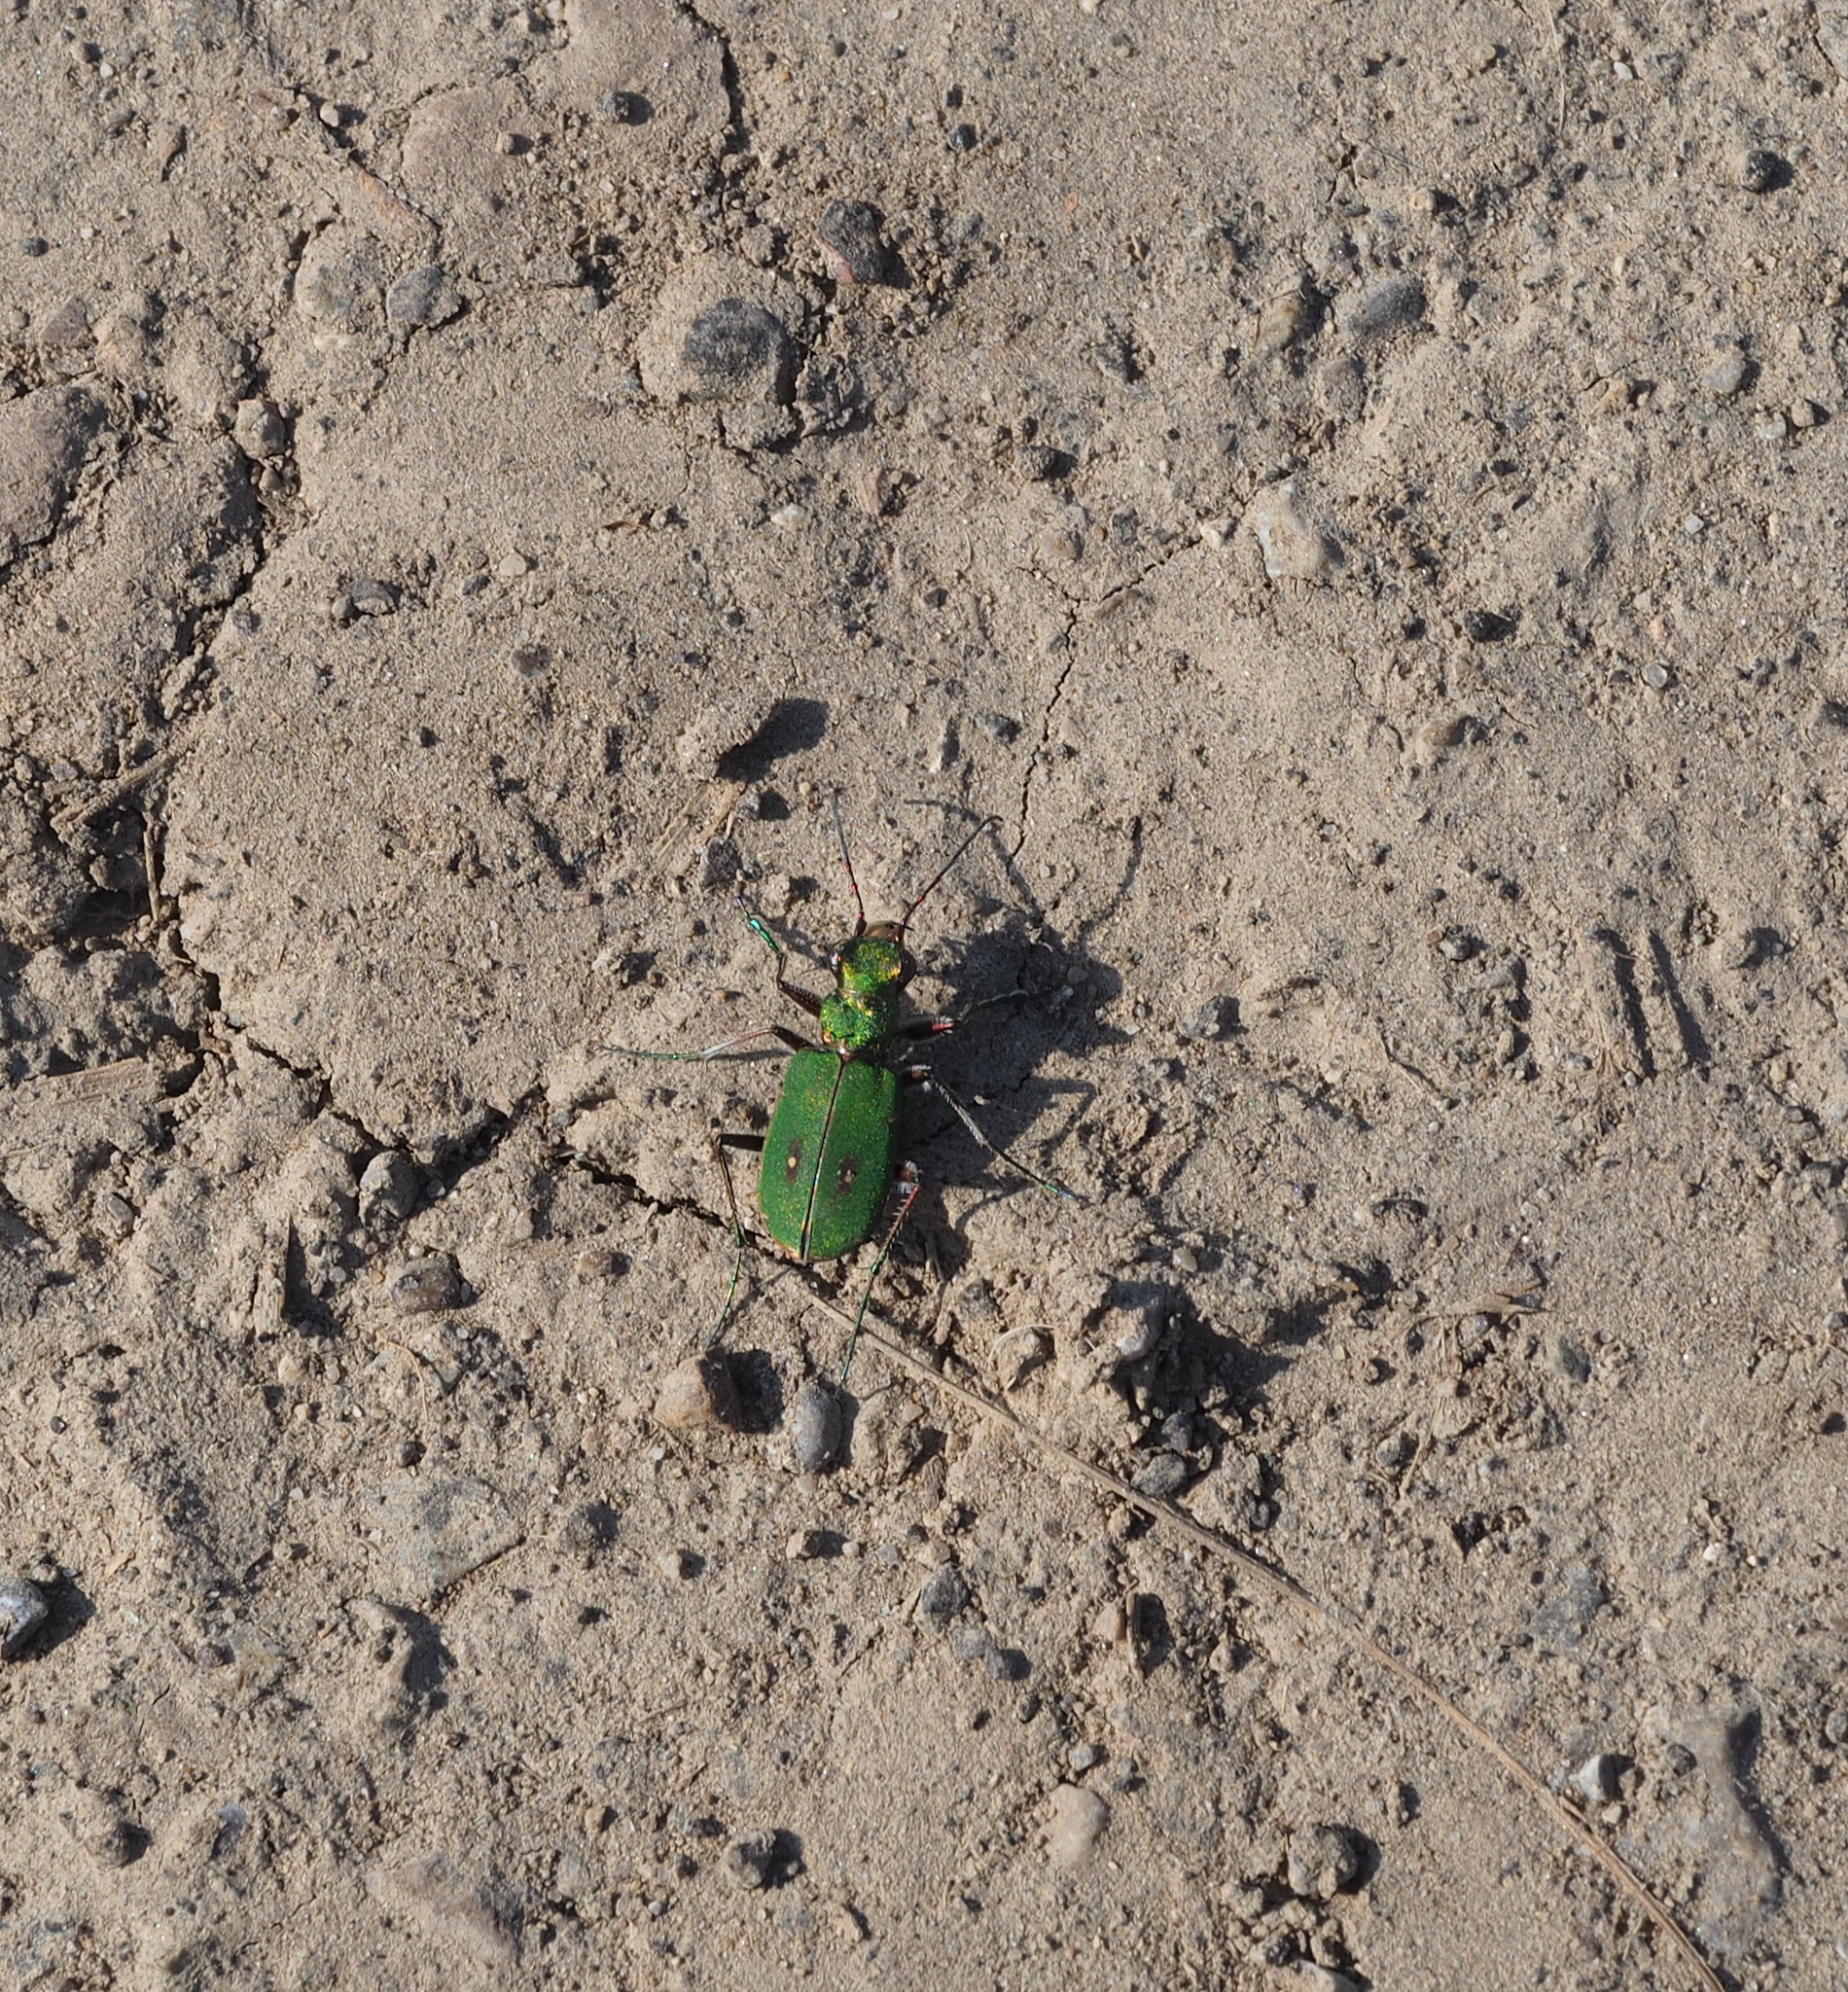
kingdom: Animalia
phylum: Arthropoda
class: Insecta
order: Coleoptera
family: Carabidae
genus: Cicindela
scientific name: Cicindela campestris
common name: Common tiger beetle
